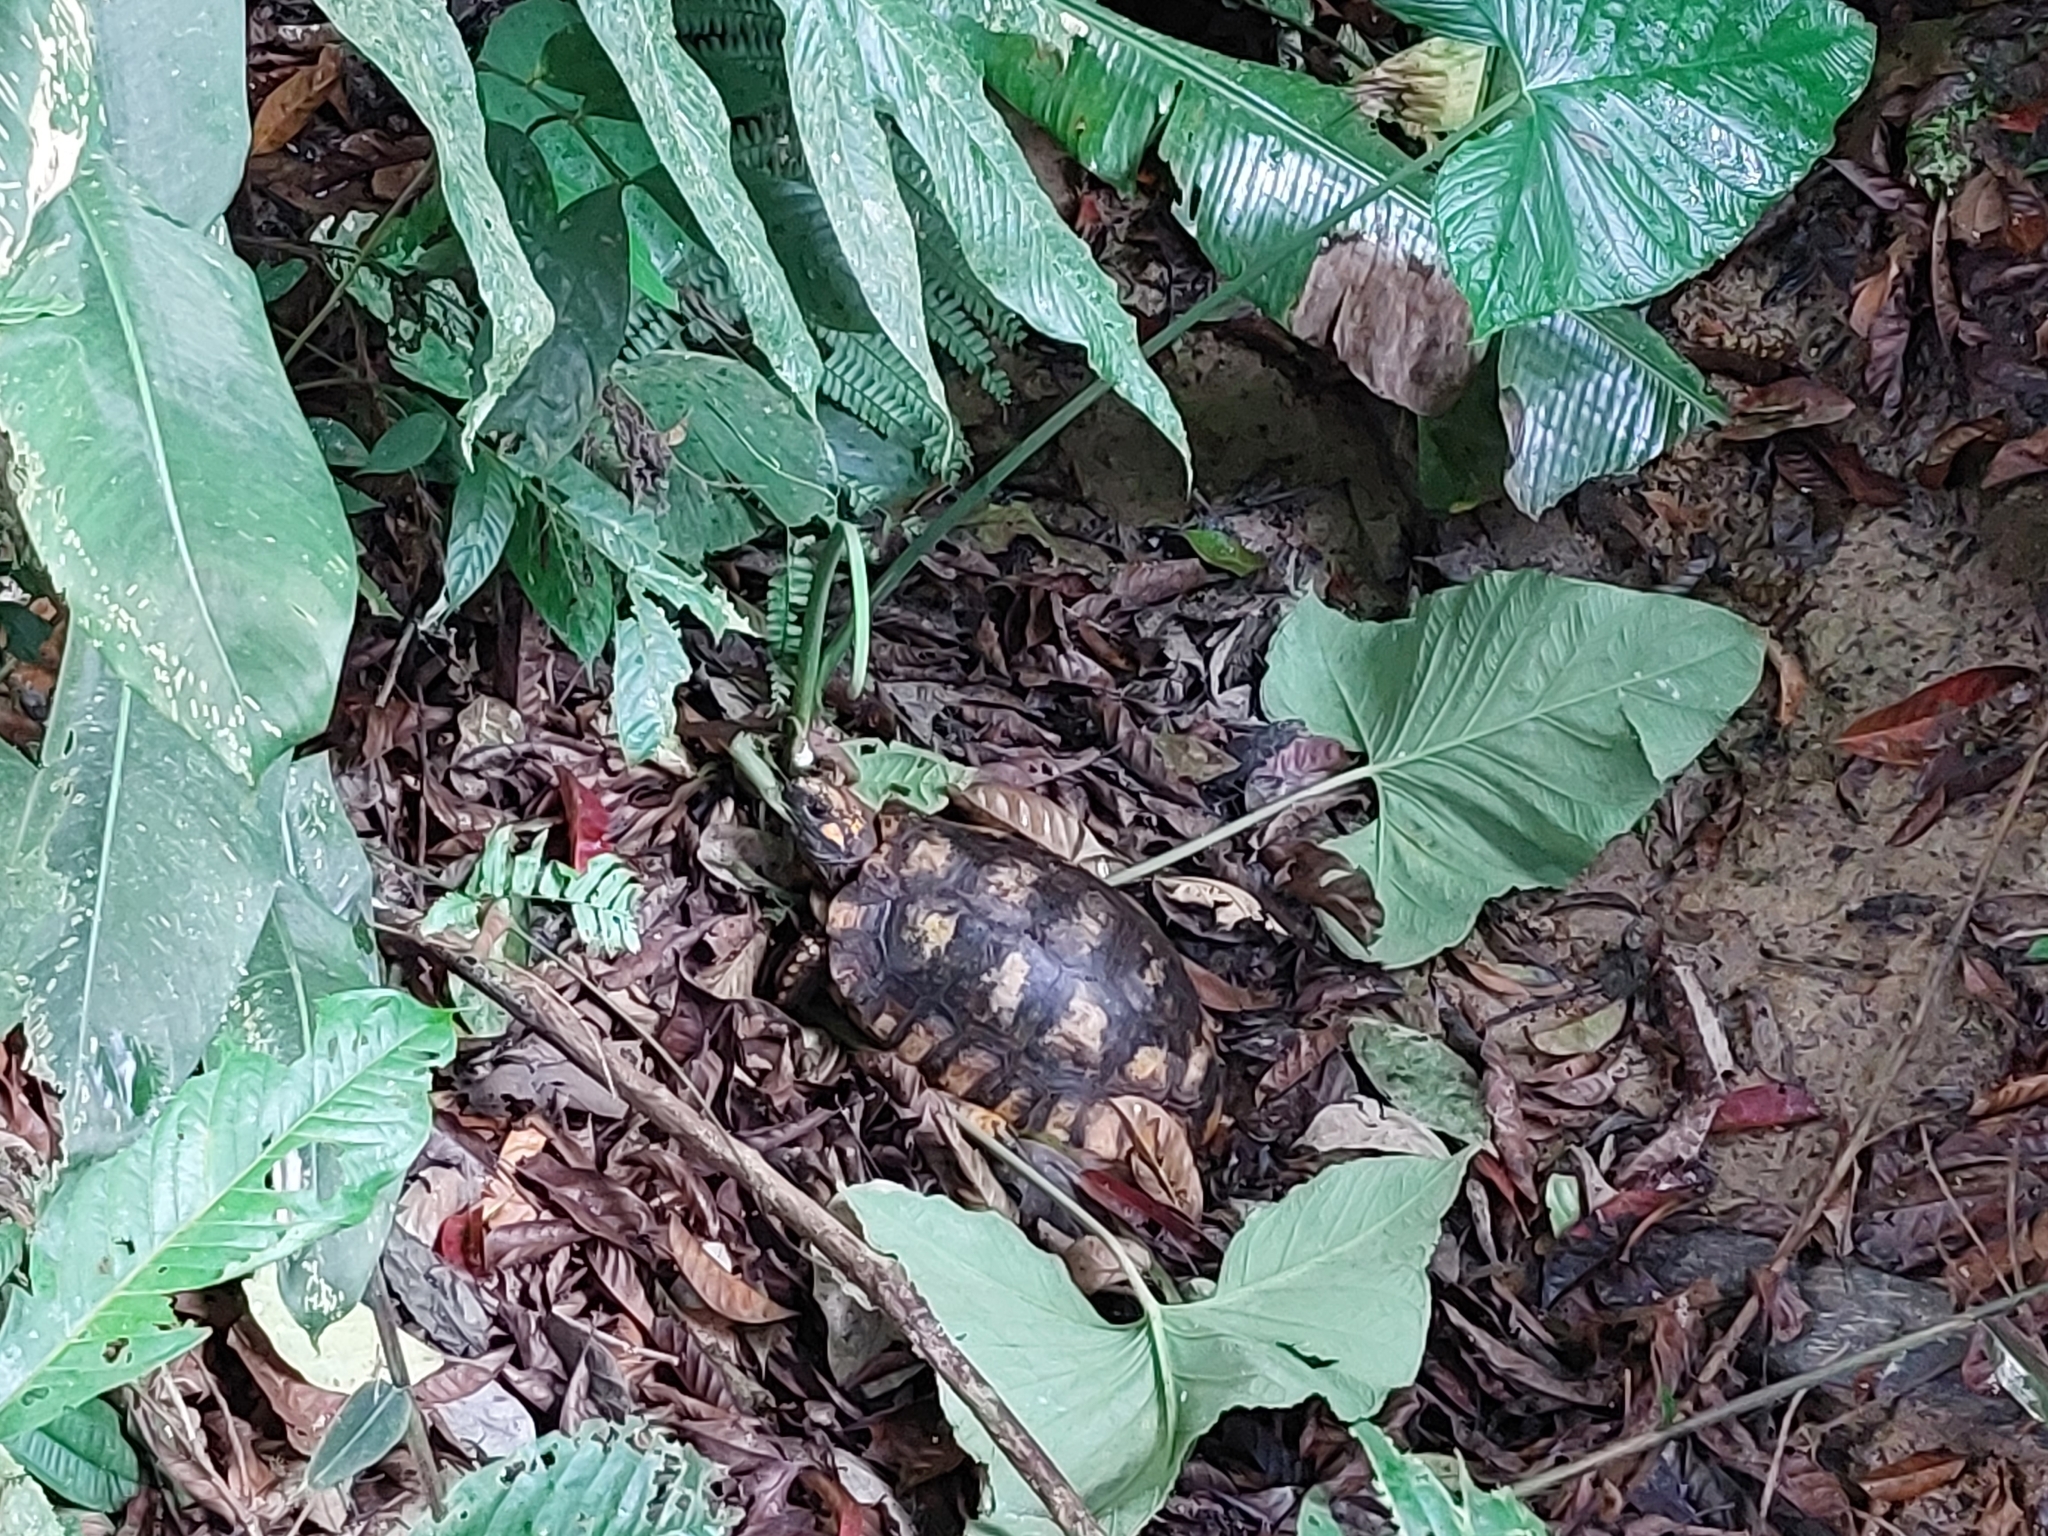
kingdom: Animalia
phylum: Chordata
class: Testudines
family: Testudinidae
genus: Chelonoidis
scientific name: Chelonoidis denticulatus
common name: Yellow-footed tortoise
